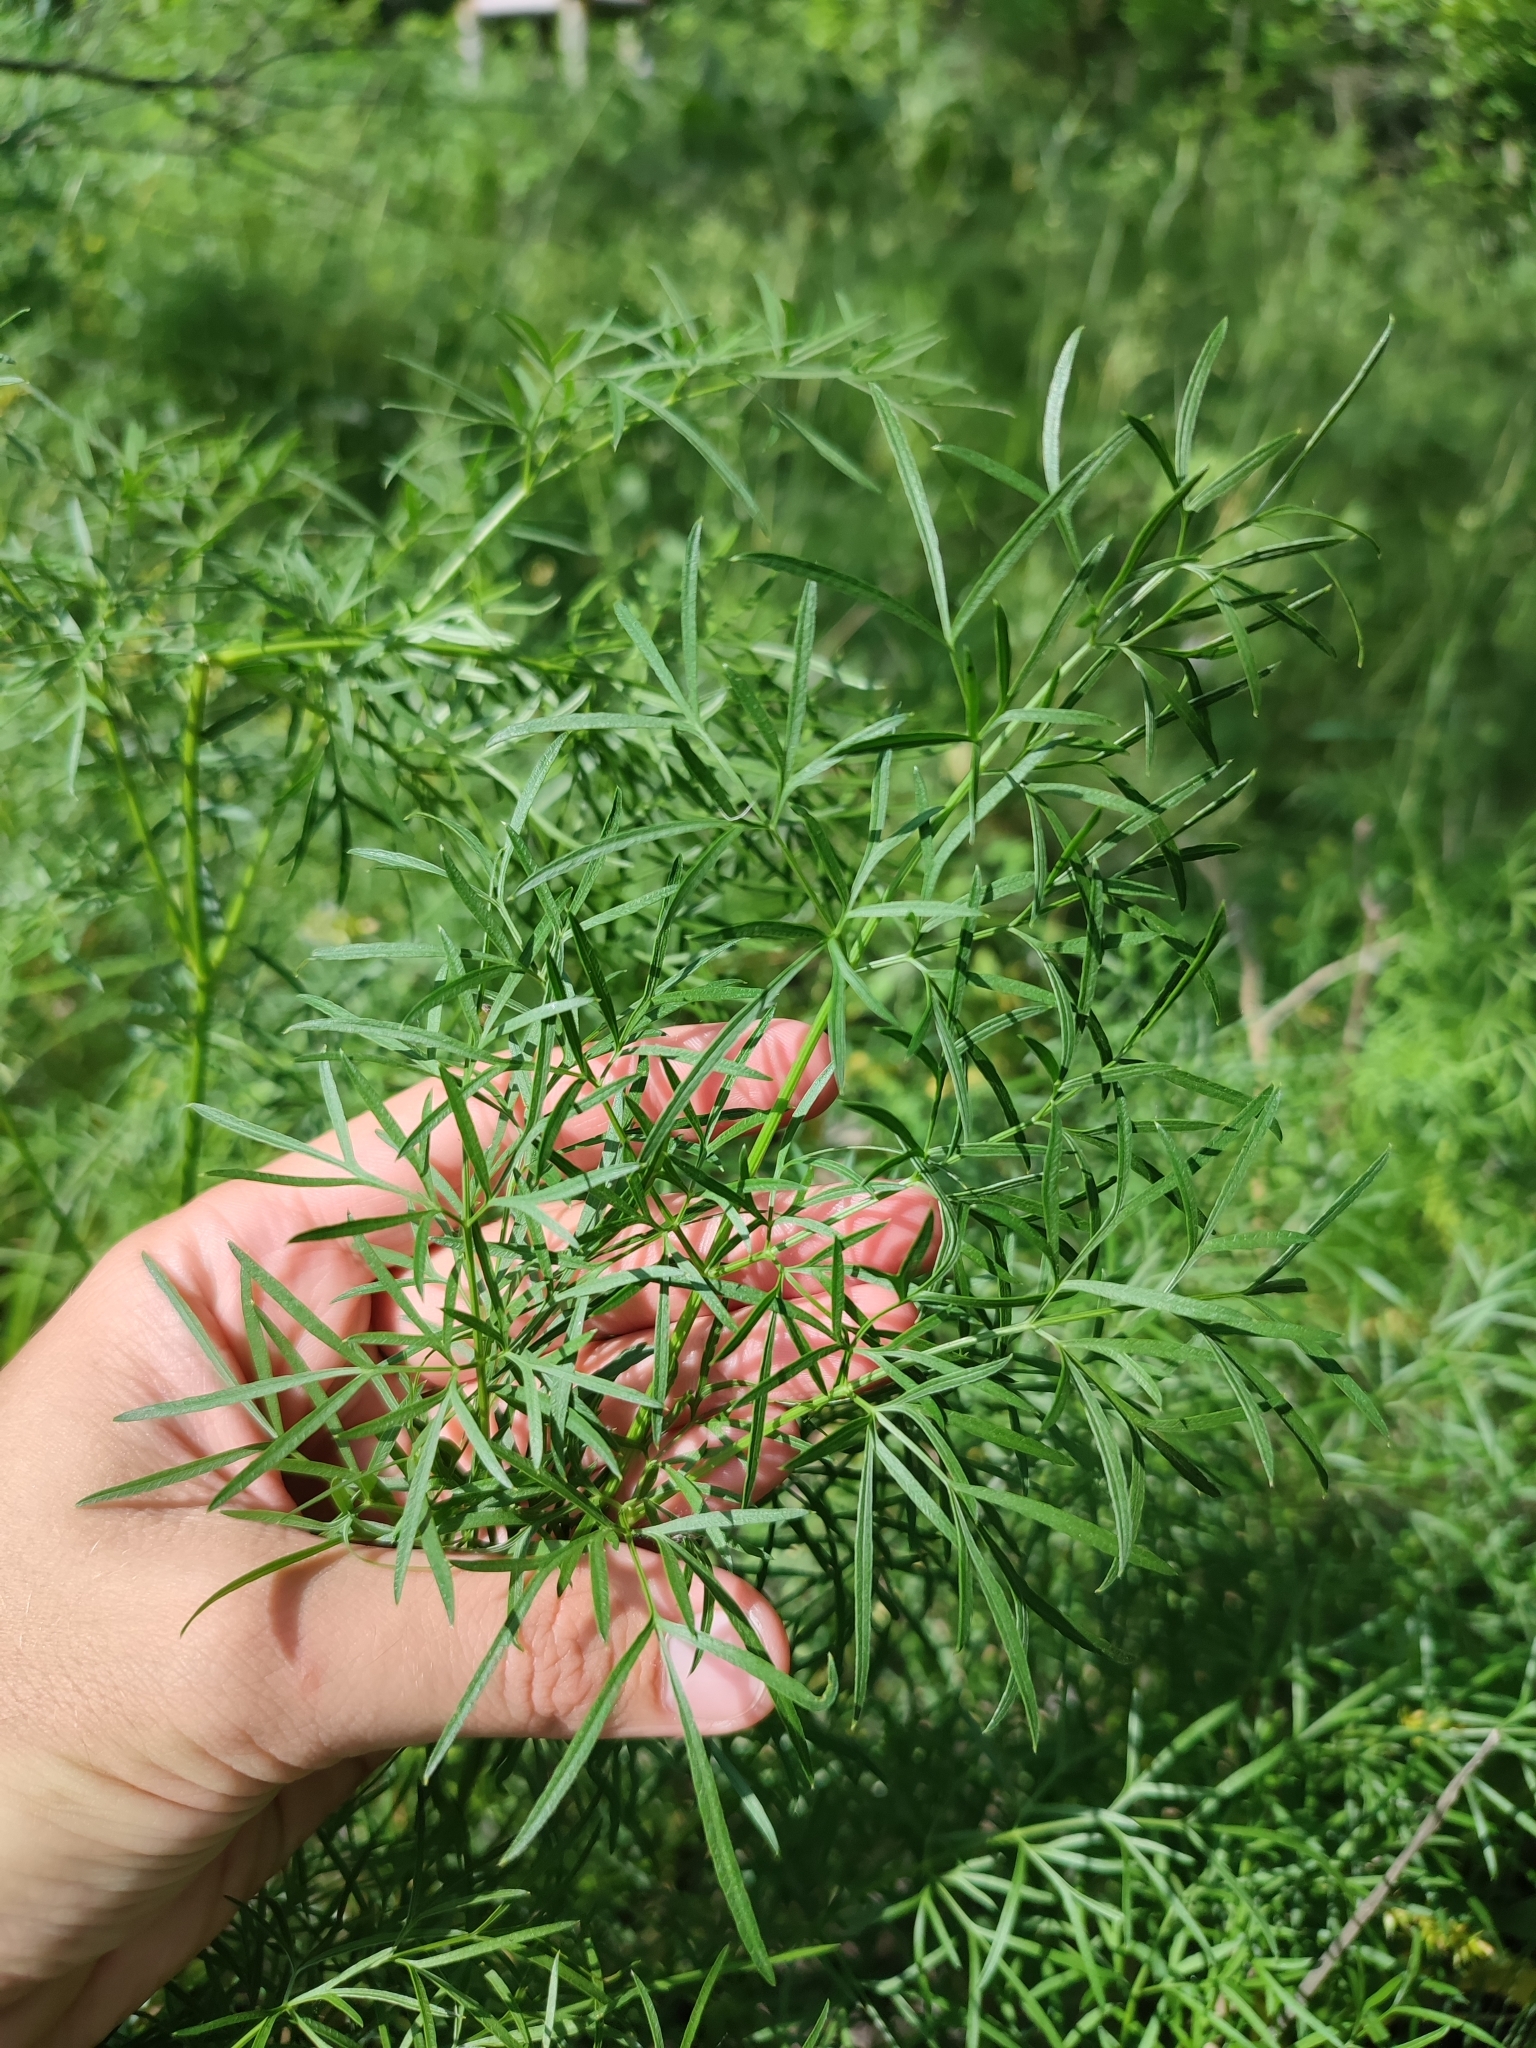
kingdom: Plantae
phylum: Tracheophyta
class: Magnoliopsida
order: Apiales
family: Apiaceae
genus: Silaum
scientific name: Silaum silaus
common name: Pepper-saxifrage
